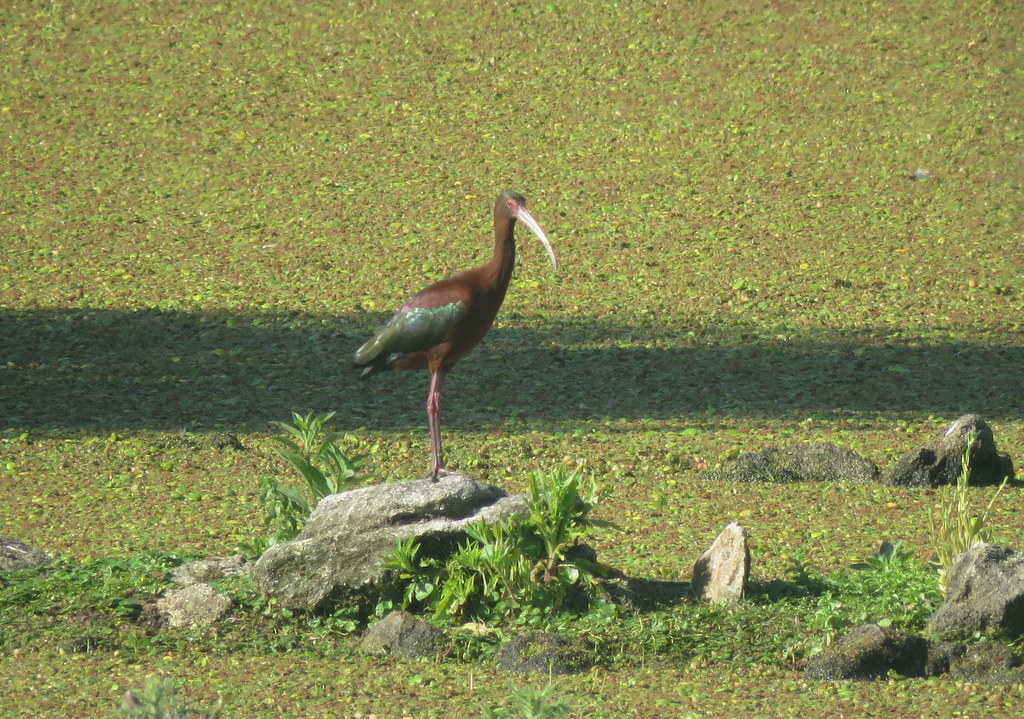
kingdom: Animalia
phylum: Chordata
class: Aves
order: Pelecaniformes
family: Threskiornithidae
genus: Plegadis
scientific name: Plegadis chihi
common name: White-faced ibis
